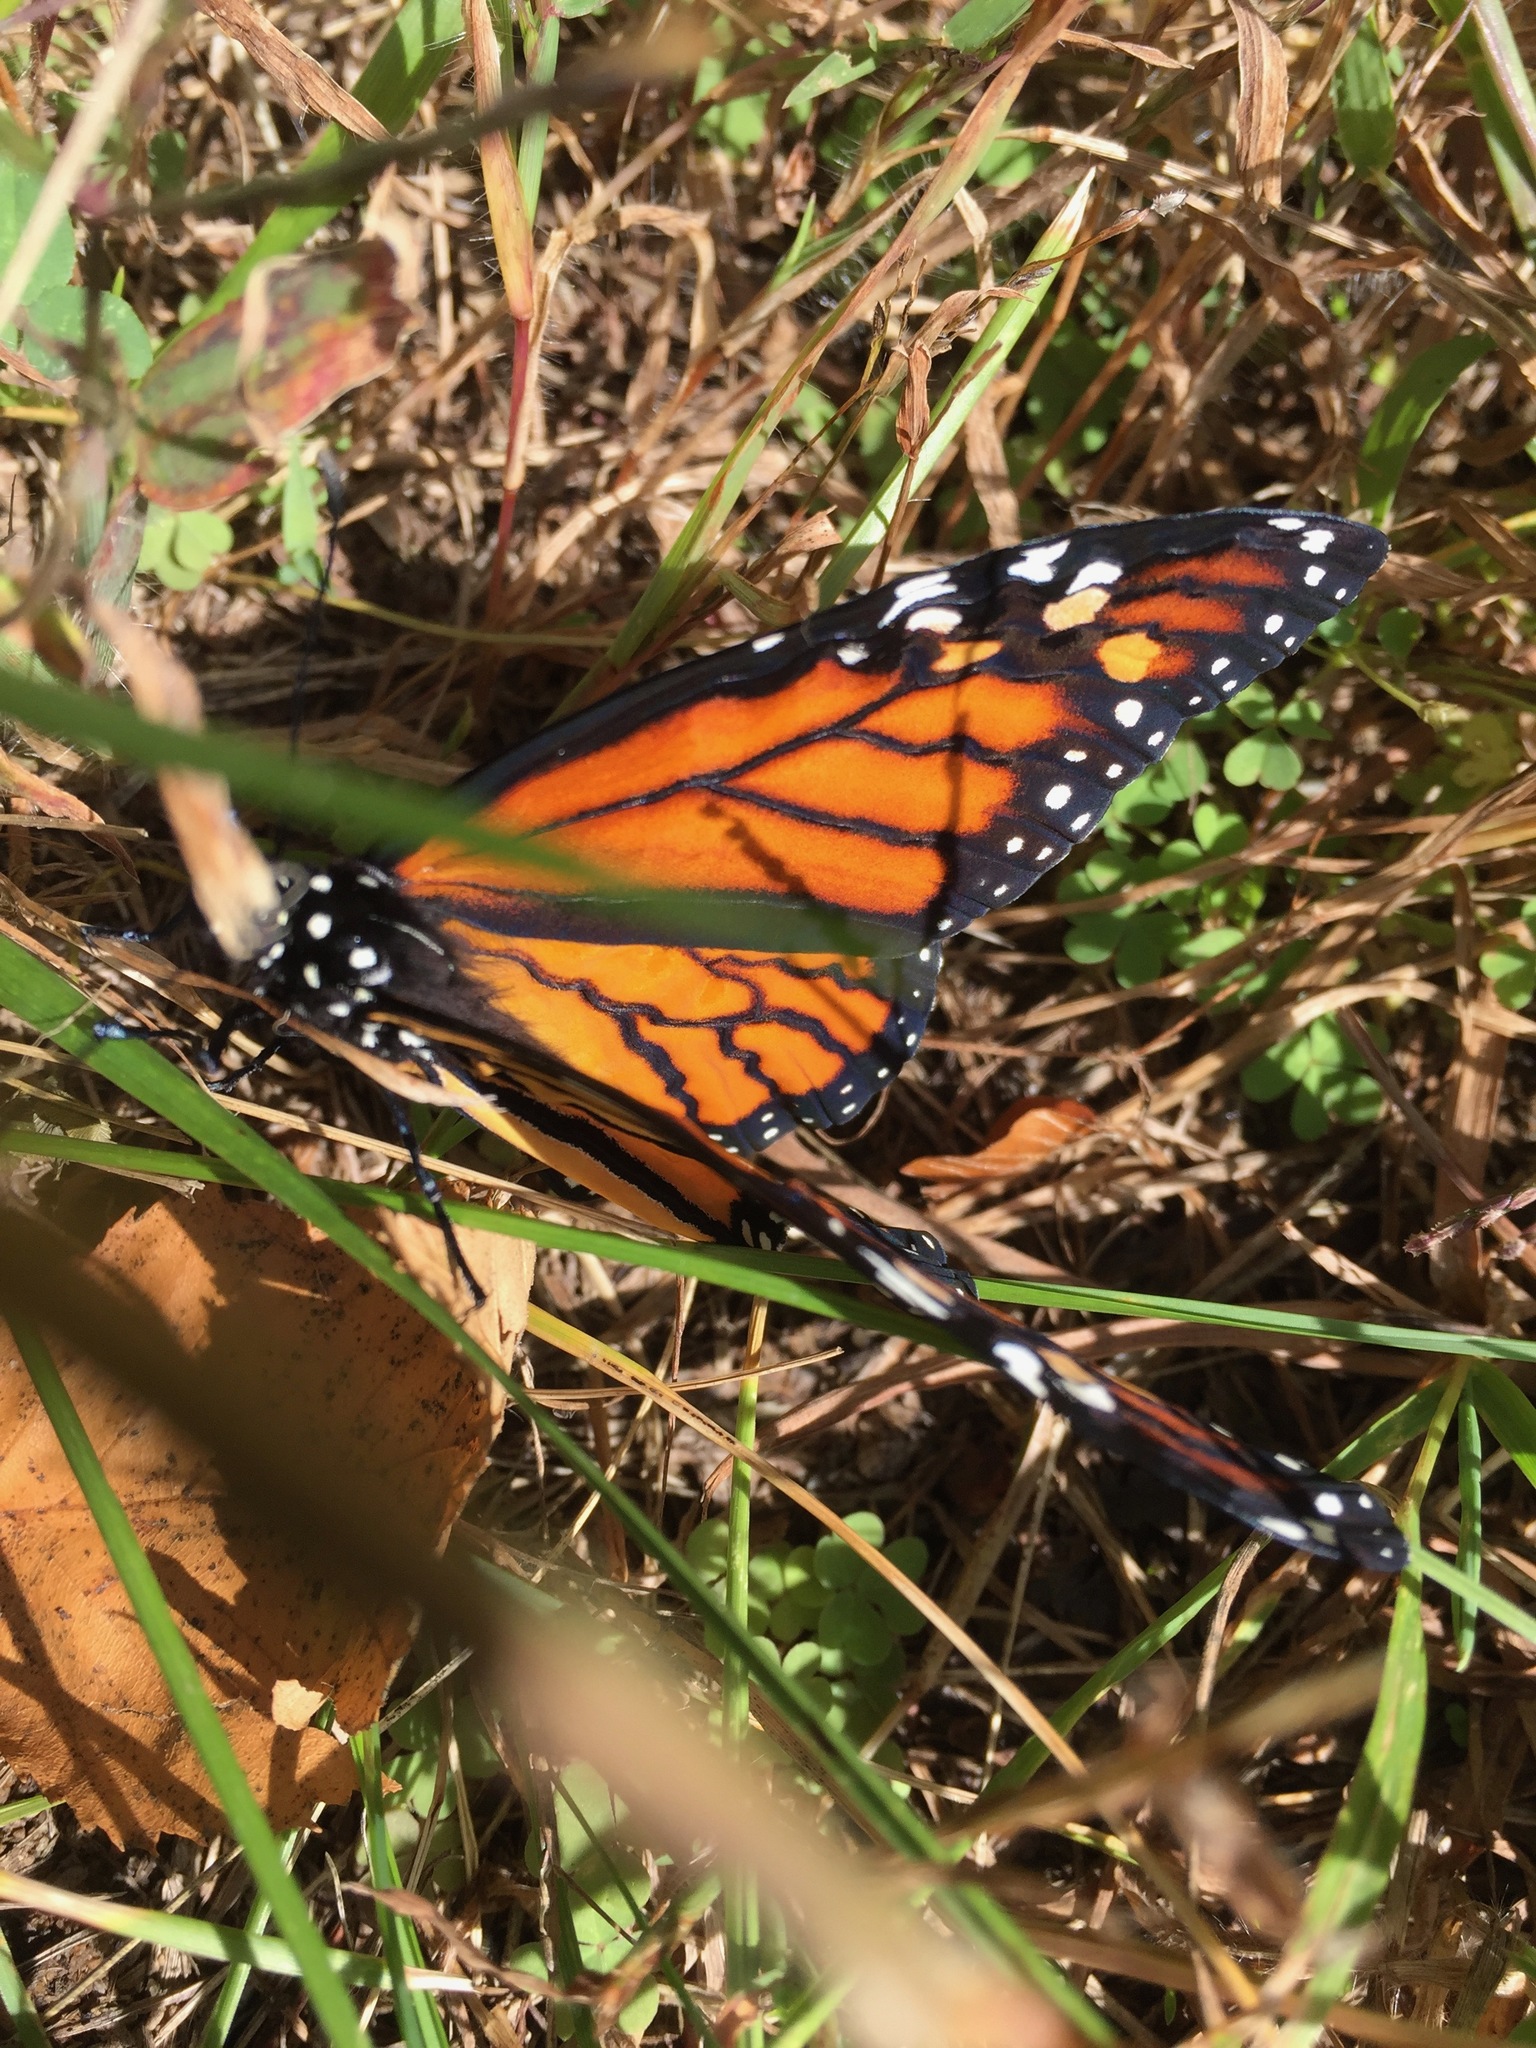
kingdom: Animalia
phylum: Arthropoda
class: Insecta
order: Lepidoptera
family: Nymphalidae
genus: Danaus
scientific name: Danaus plexippus
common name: Monarch
